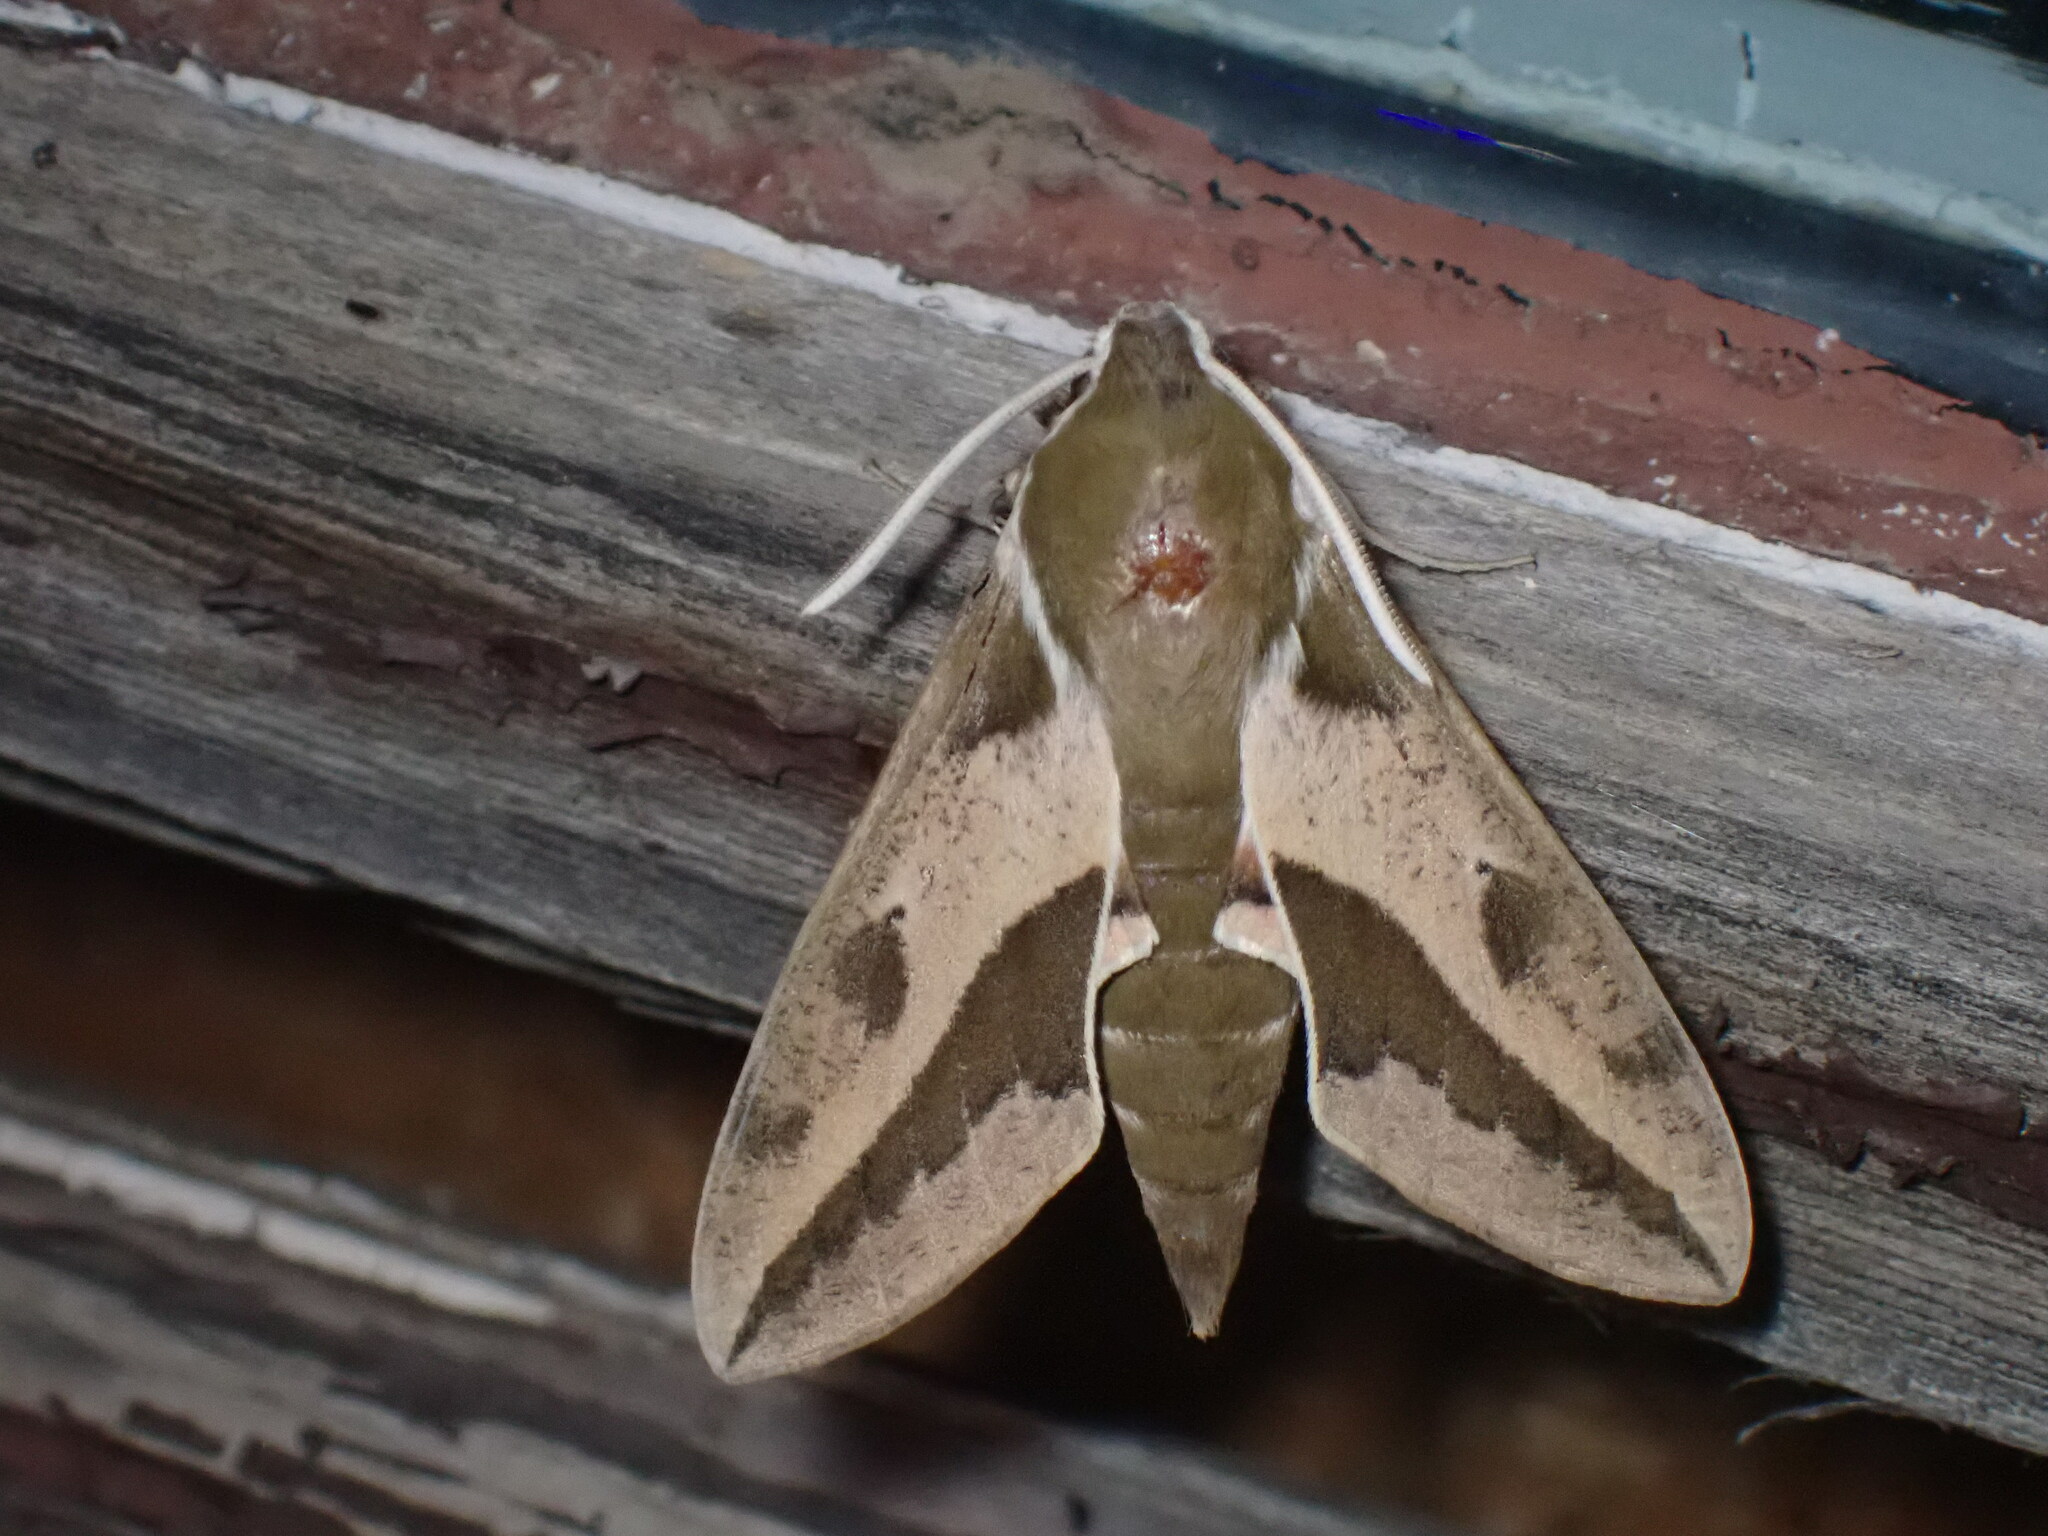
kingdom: Animalia
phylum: Arthropoda
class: Insecta
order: Lepidoptera
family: Sphingidae
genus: Hyles
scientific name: Hyles euphorbiae
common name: Spurge hawk-moth
